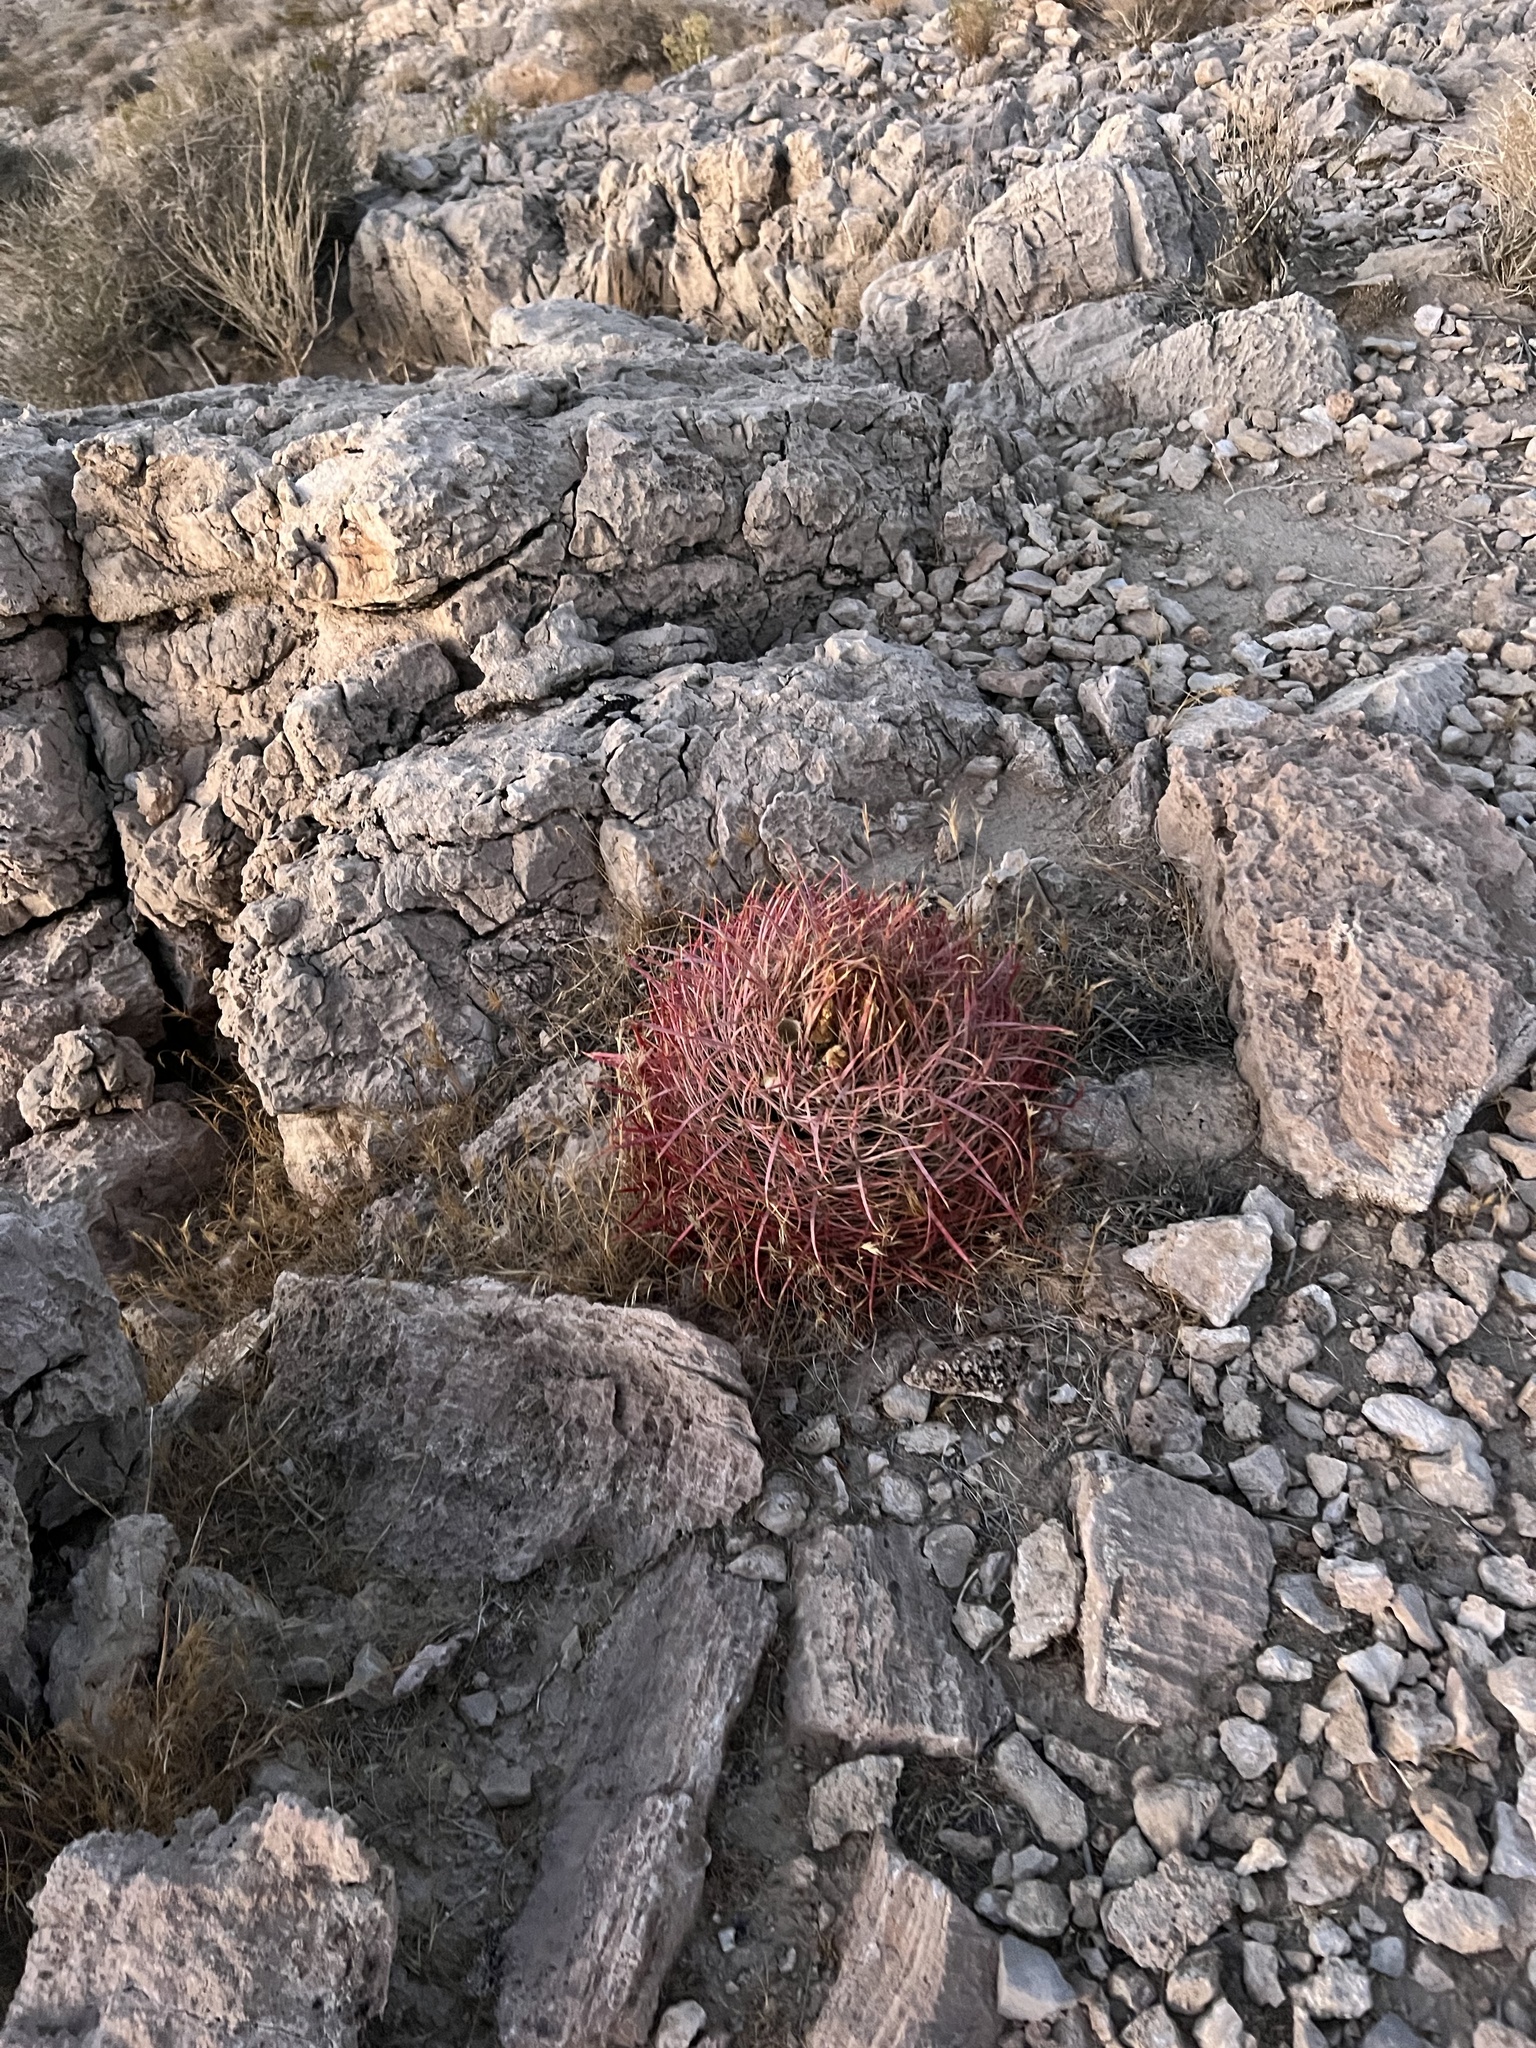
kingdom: Plantae
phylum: Tracheophyta
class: Magnoliopsida
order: Caryophyllales
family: Cactaceae
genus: Ferocactus
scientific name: Ferocactus cylindraceus
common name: California barrel cactus
